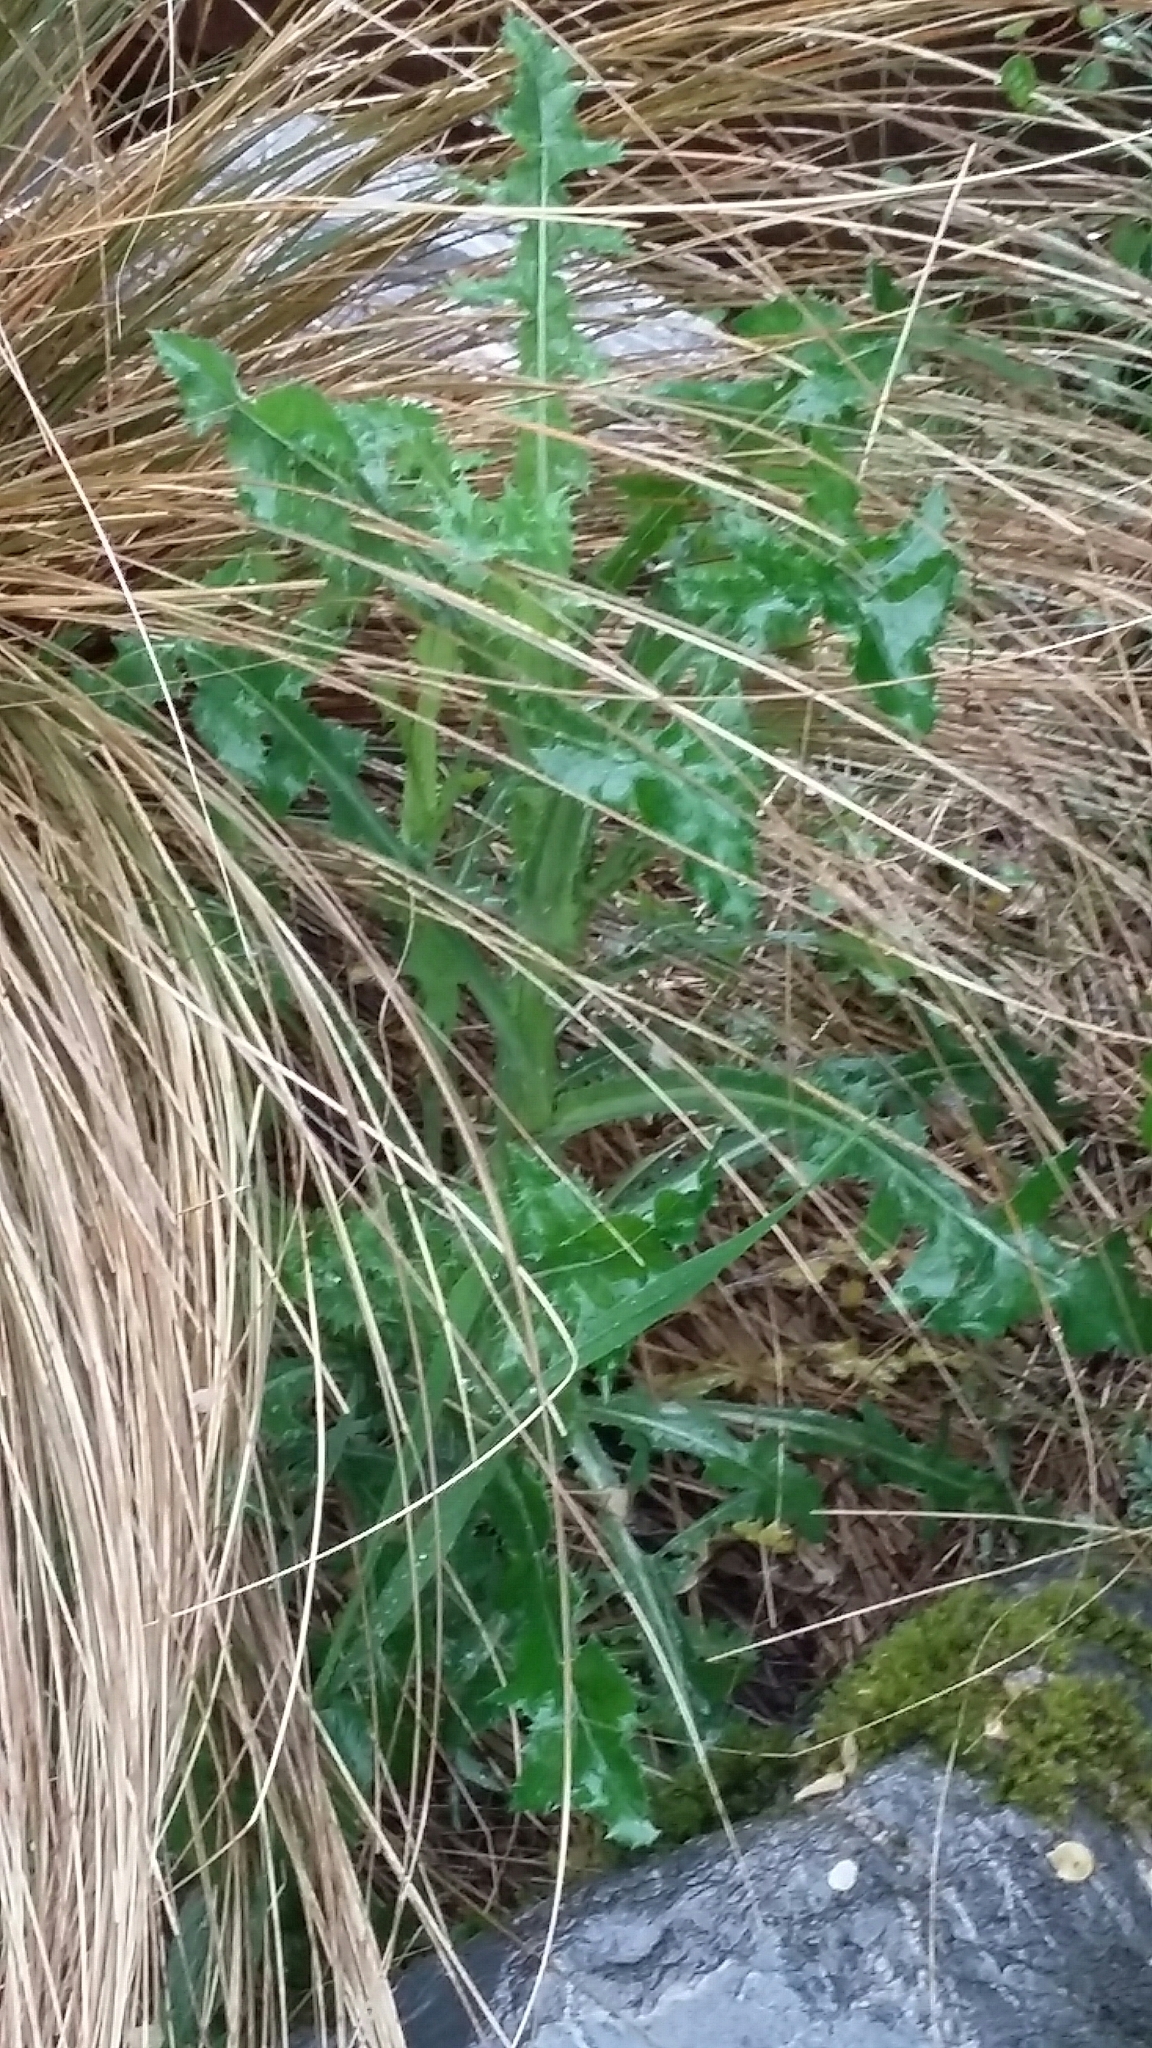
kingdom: Plantae
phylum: Tracheophyta
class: Magnoliopsida
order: Asterales
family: Asteraceae
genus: Cirsium
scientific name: Cirsium arvense
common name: Creeping thistle
